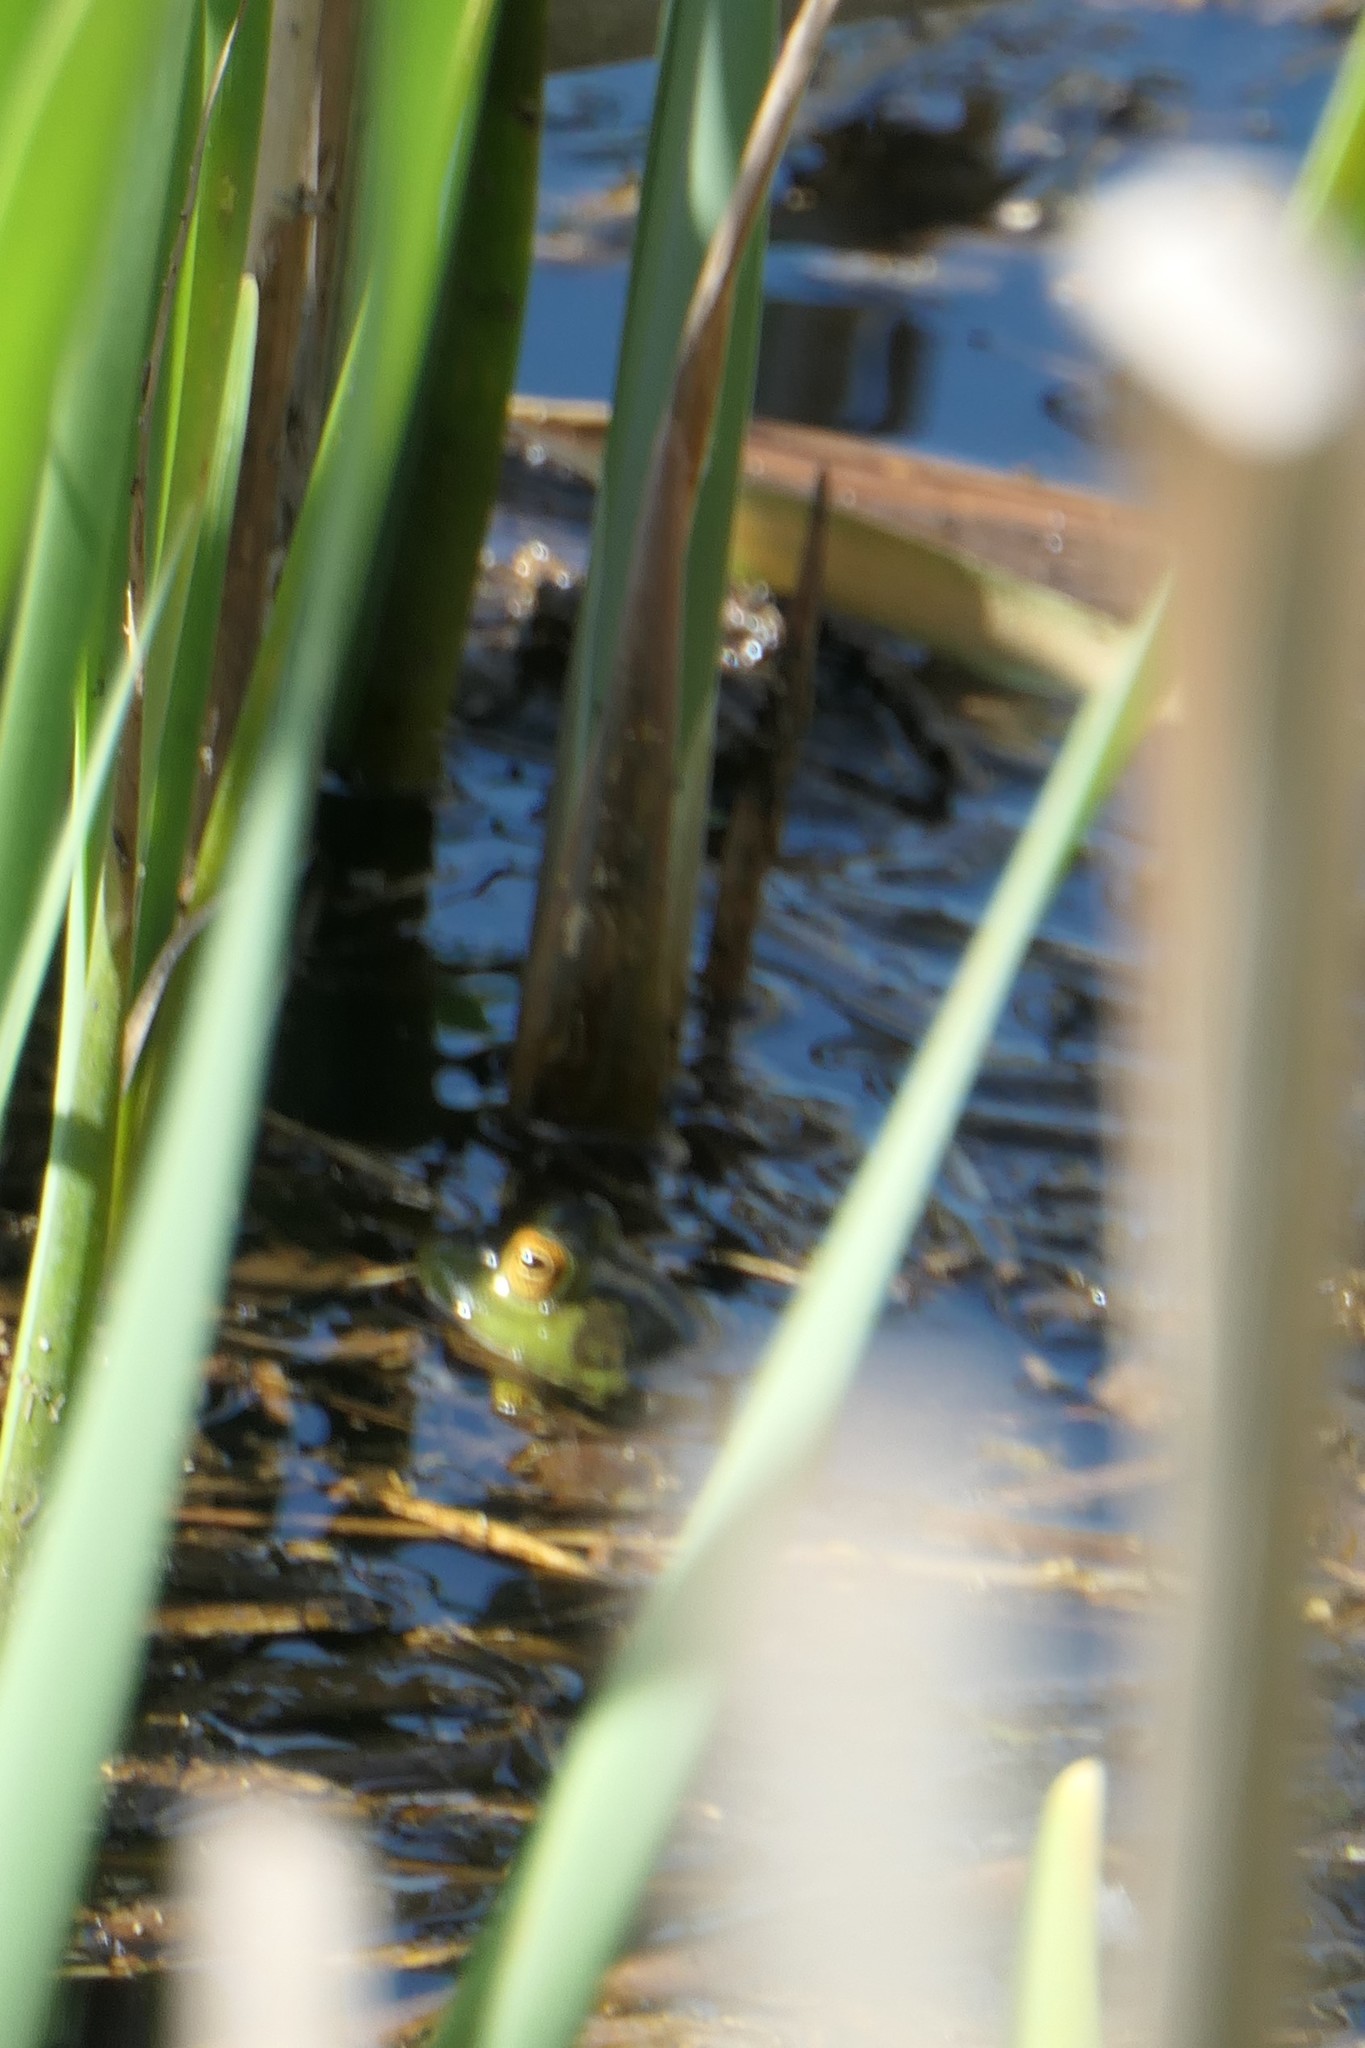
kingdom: Animalia
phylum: Chordata
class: Amphibia
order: Anura
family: Ranidae
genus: Lithobates
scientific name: Lithobates clamitans
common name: Green frog
